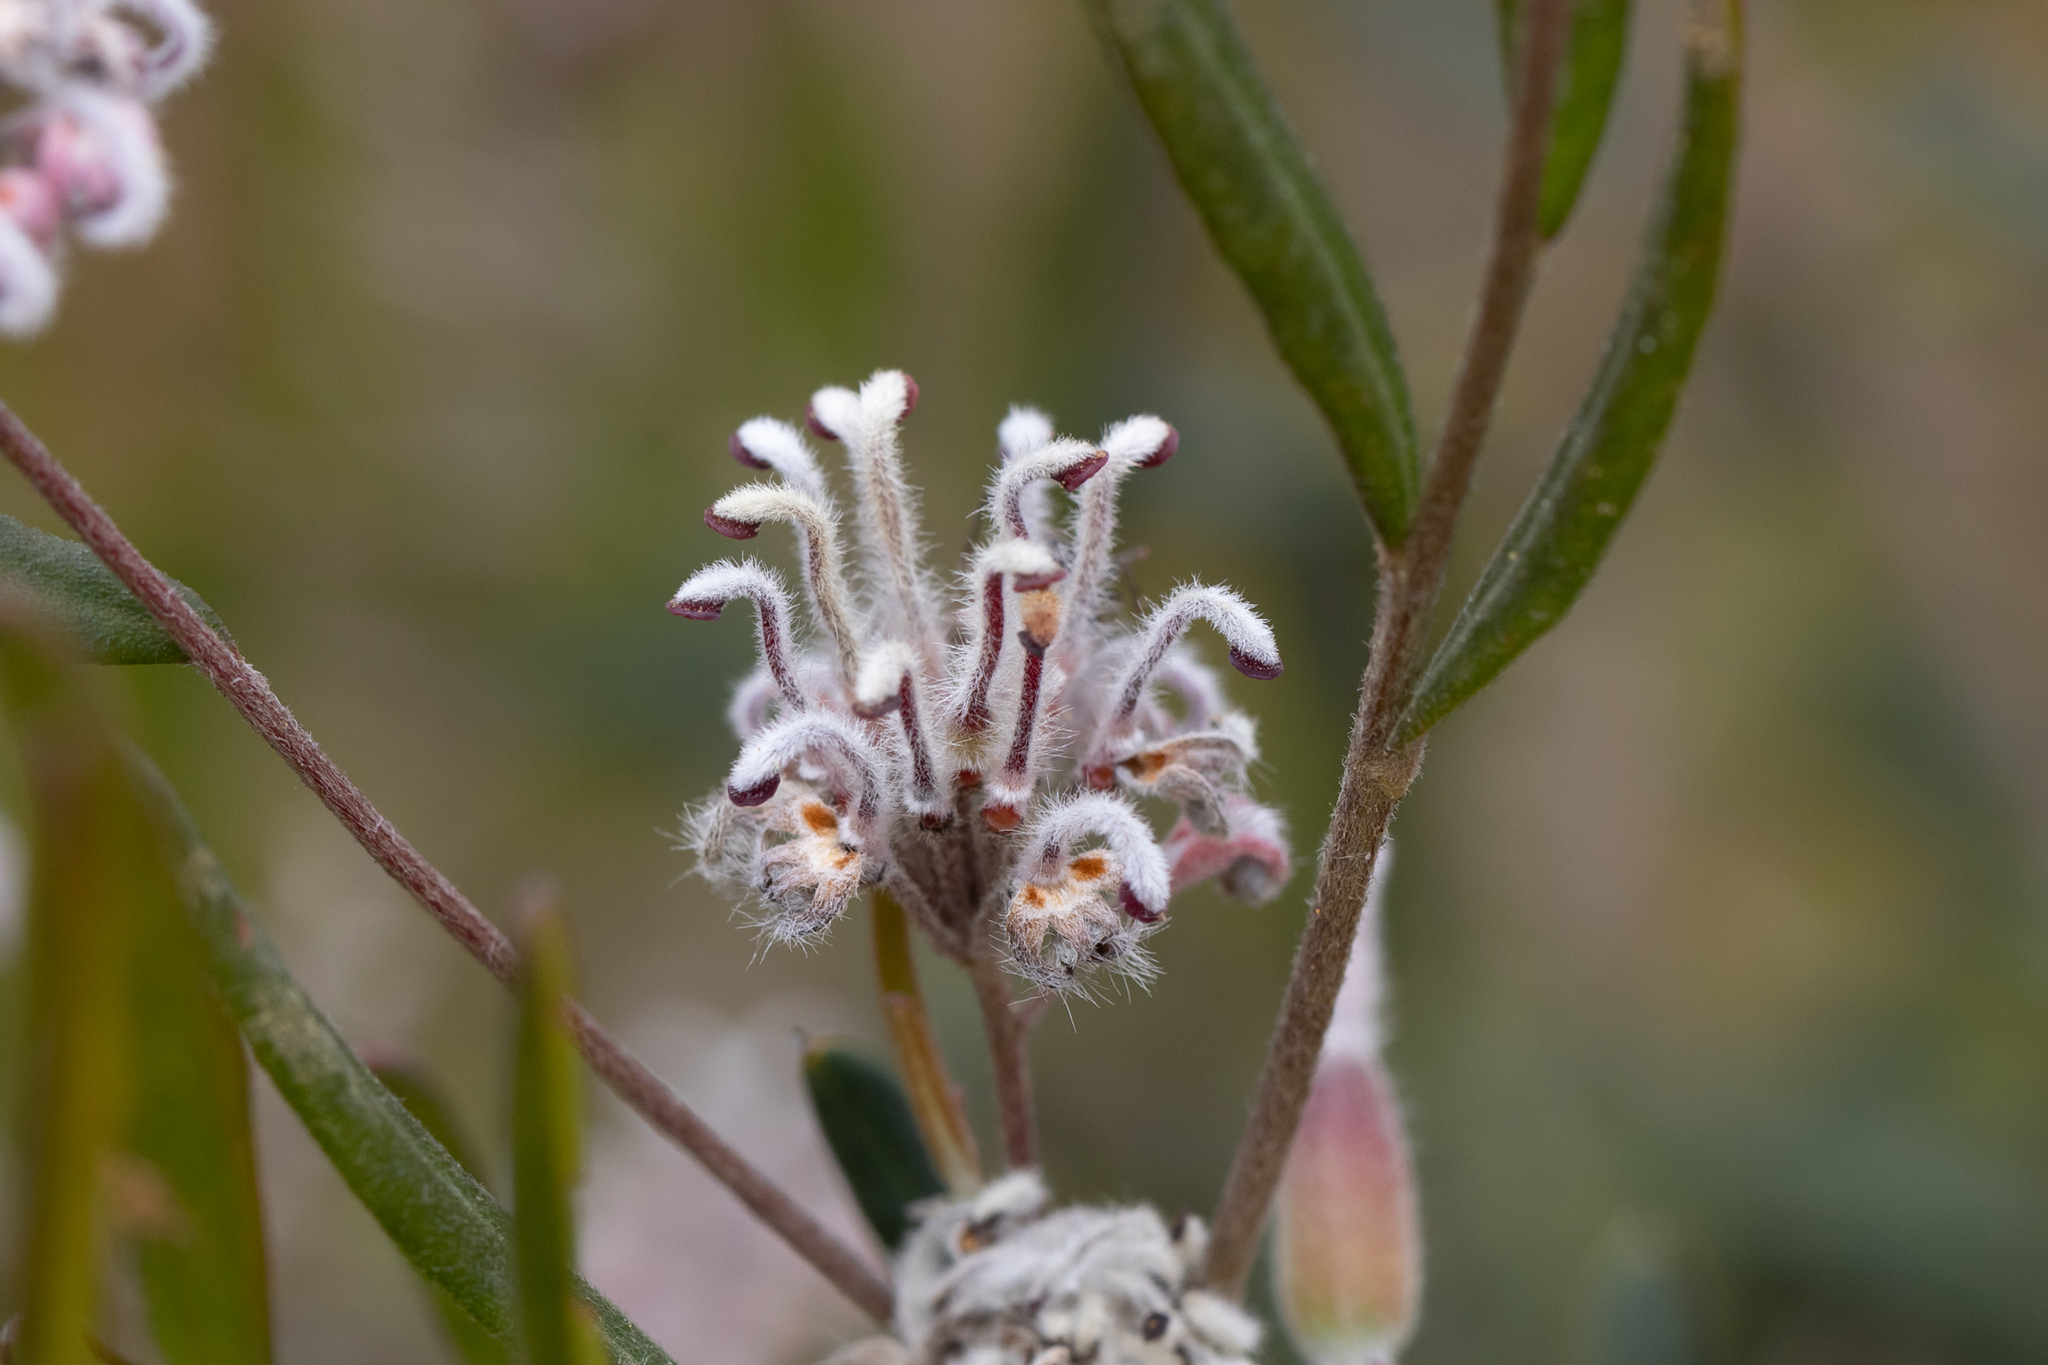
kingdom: Plantae
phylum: Tracheophyta
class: Magnoliopsida
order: Proteales
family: Proteaceae
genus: Grevillea
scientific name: Grevillea occidentalis
